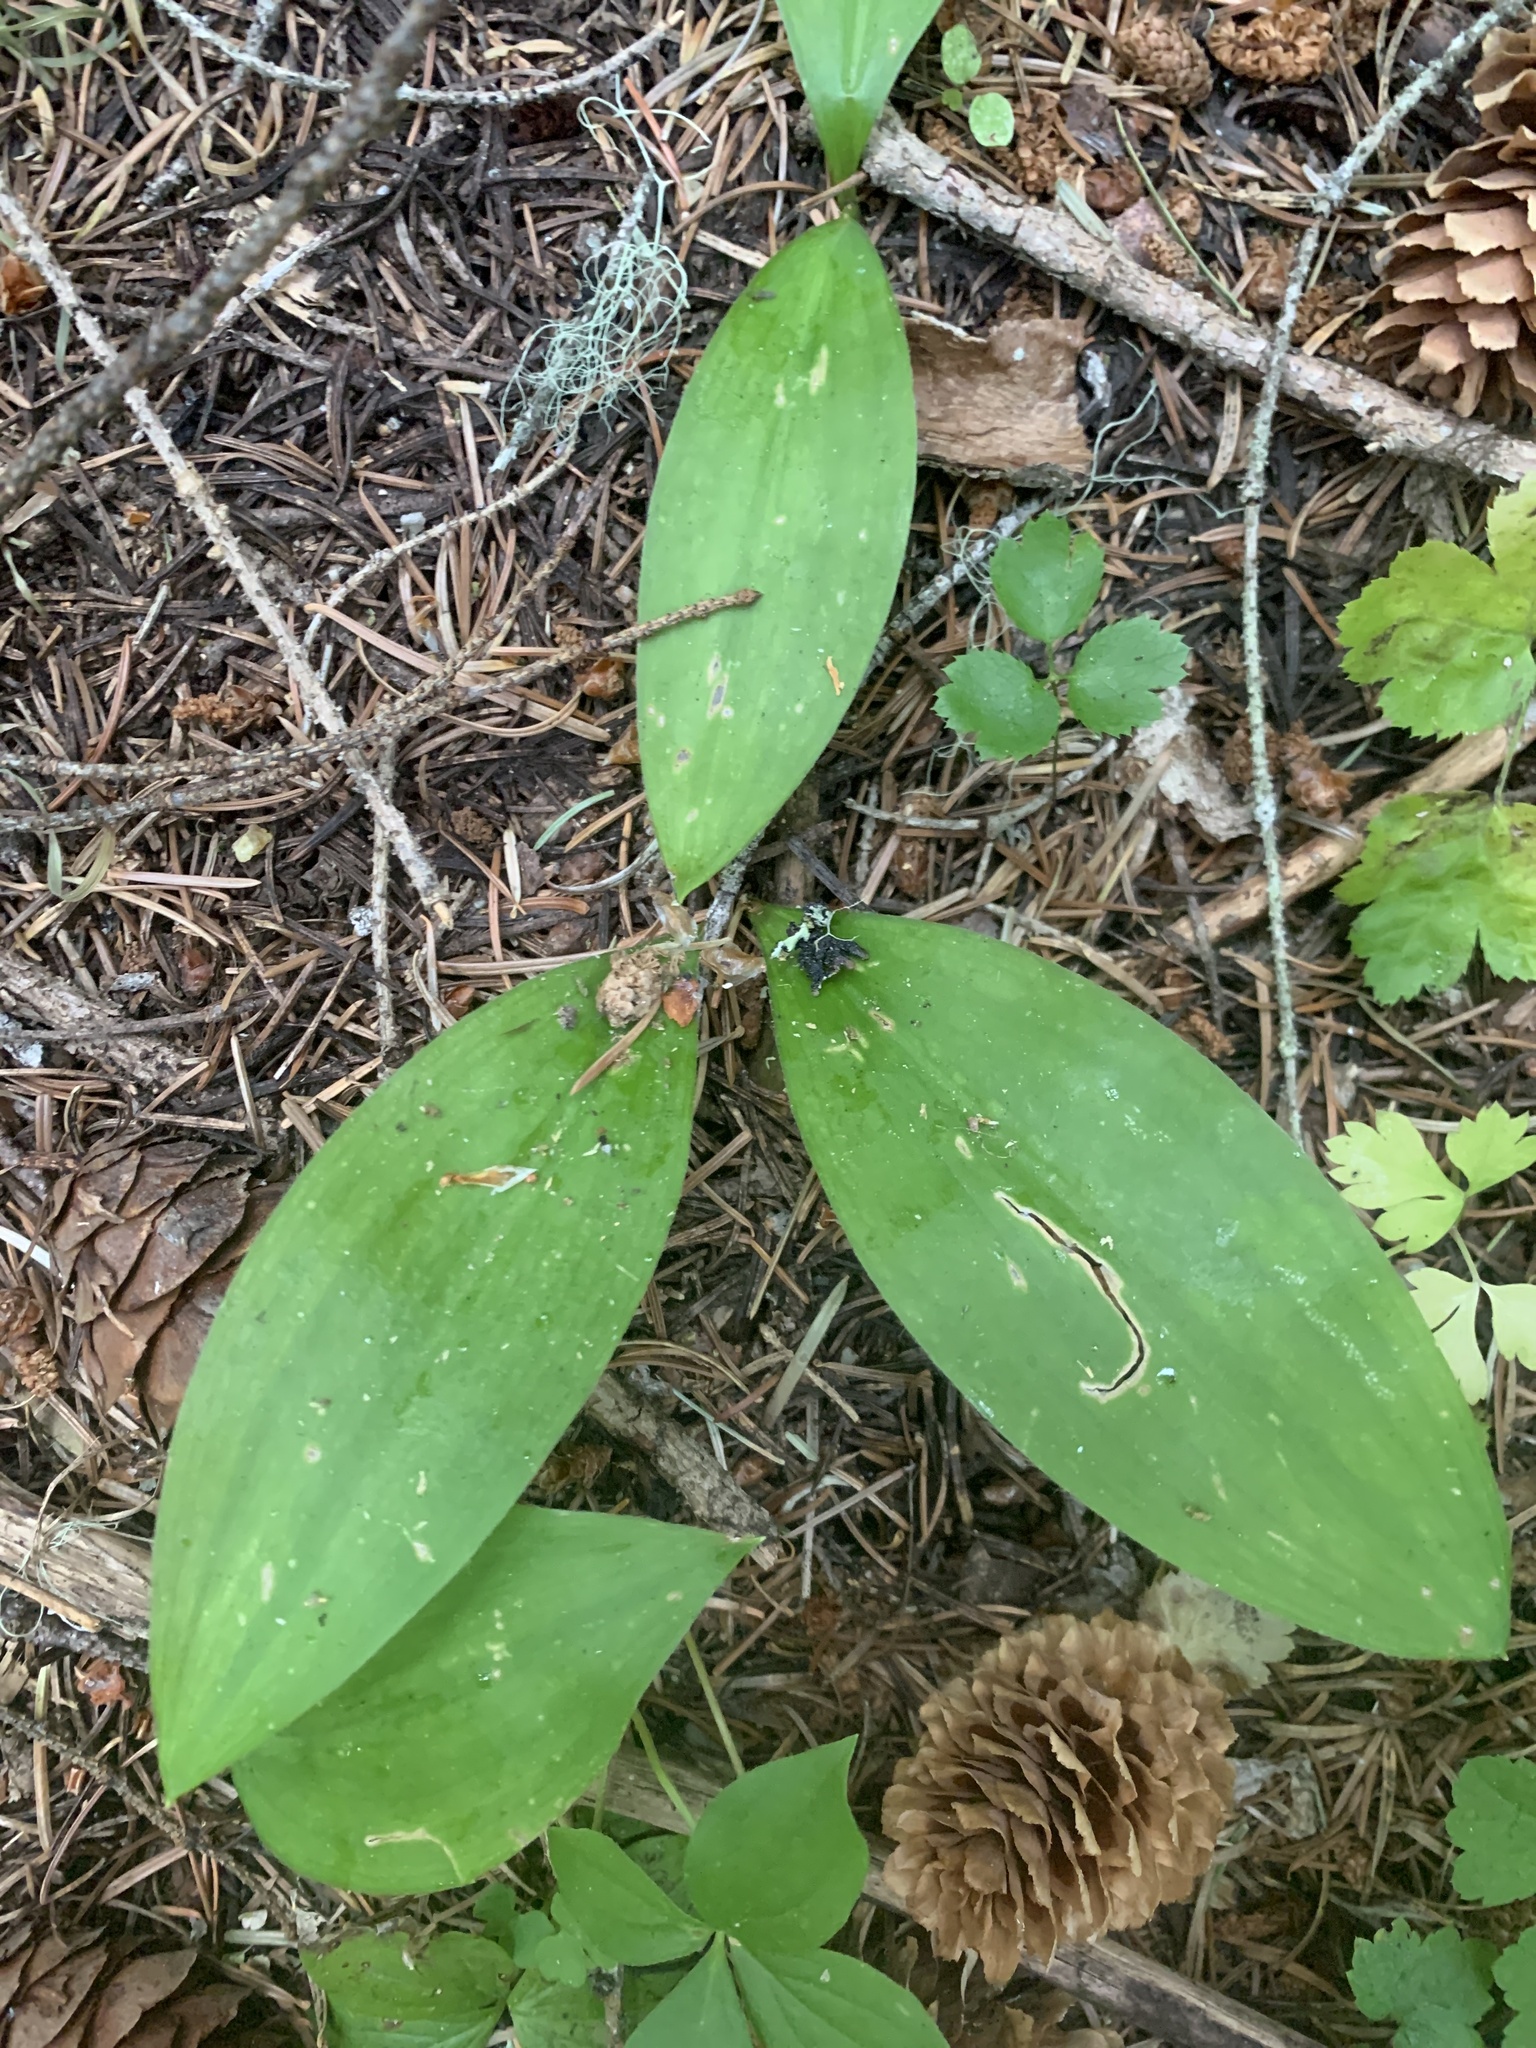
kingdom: Plantae
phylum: Tracheophyta
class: Liliopsida
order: Liliales
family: Liliaceae
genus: Clintonia
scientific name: Clintonia uniflora
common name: Queen's cup
